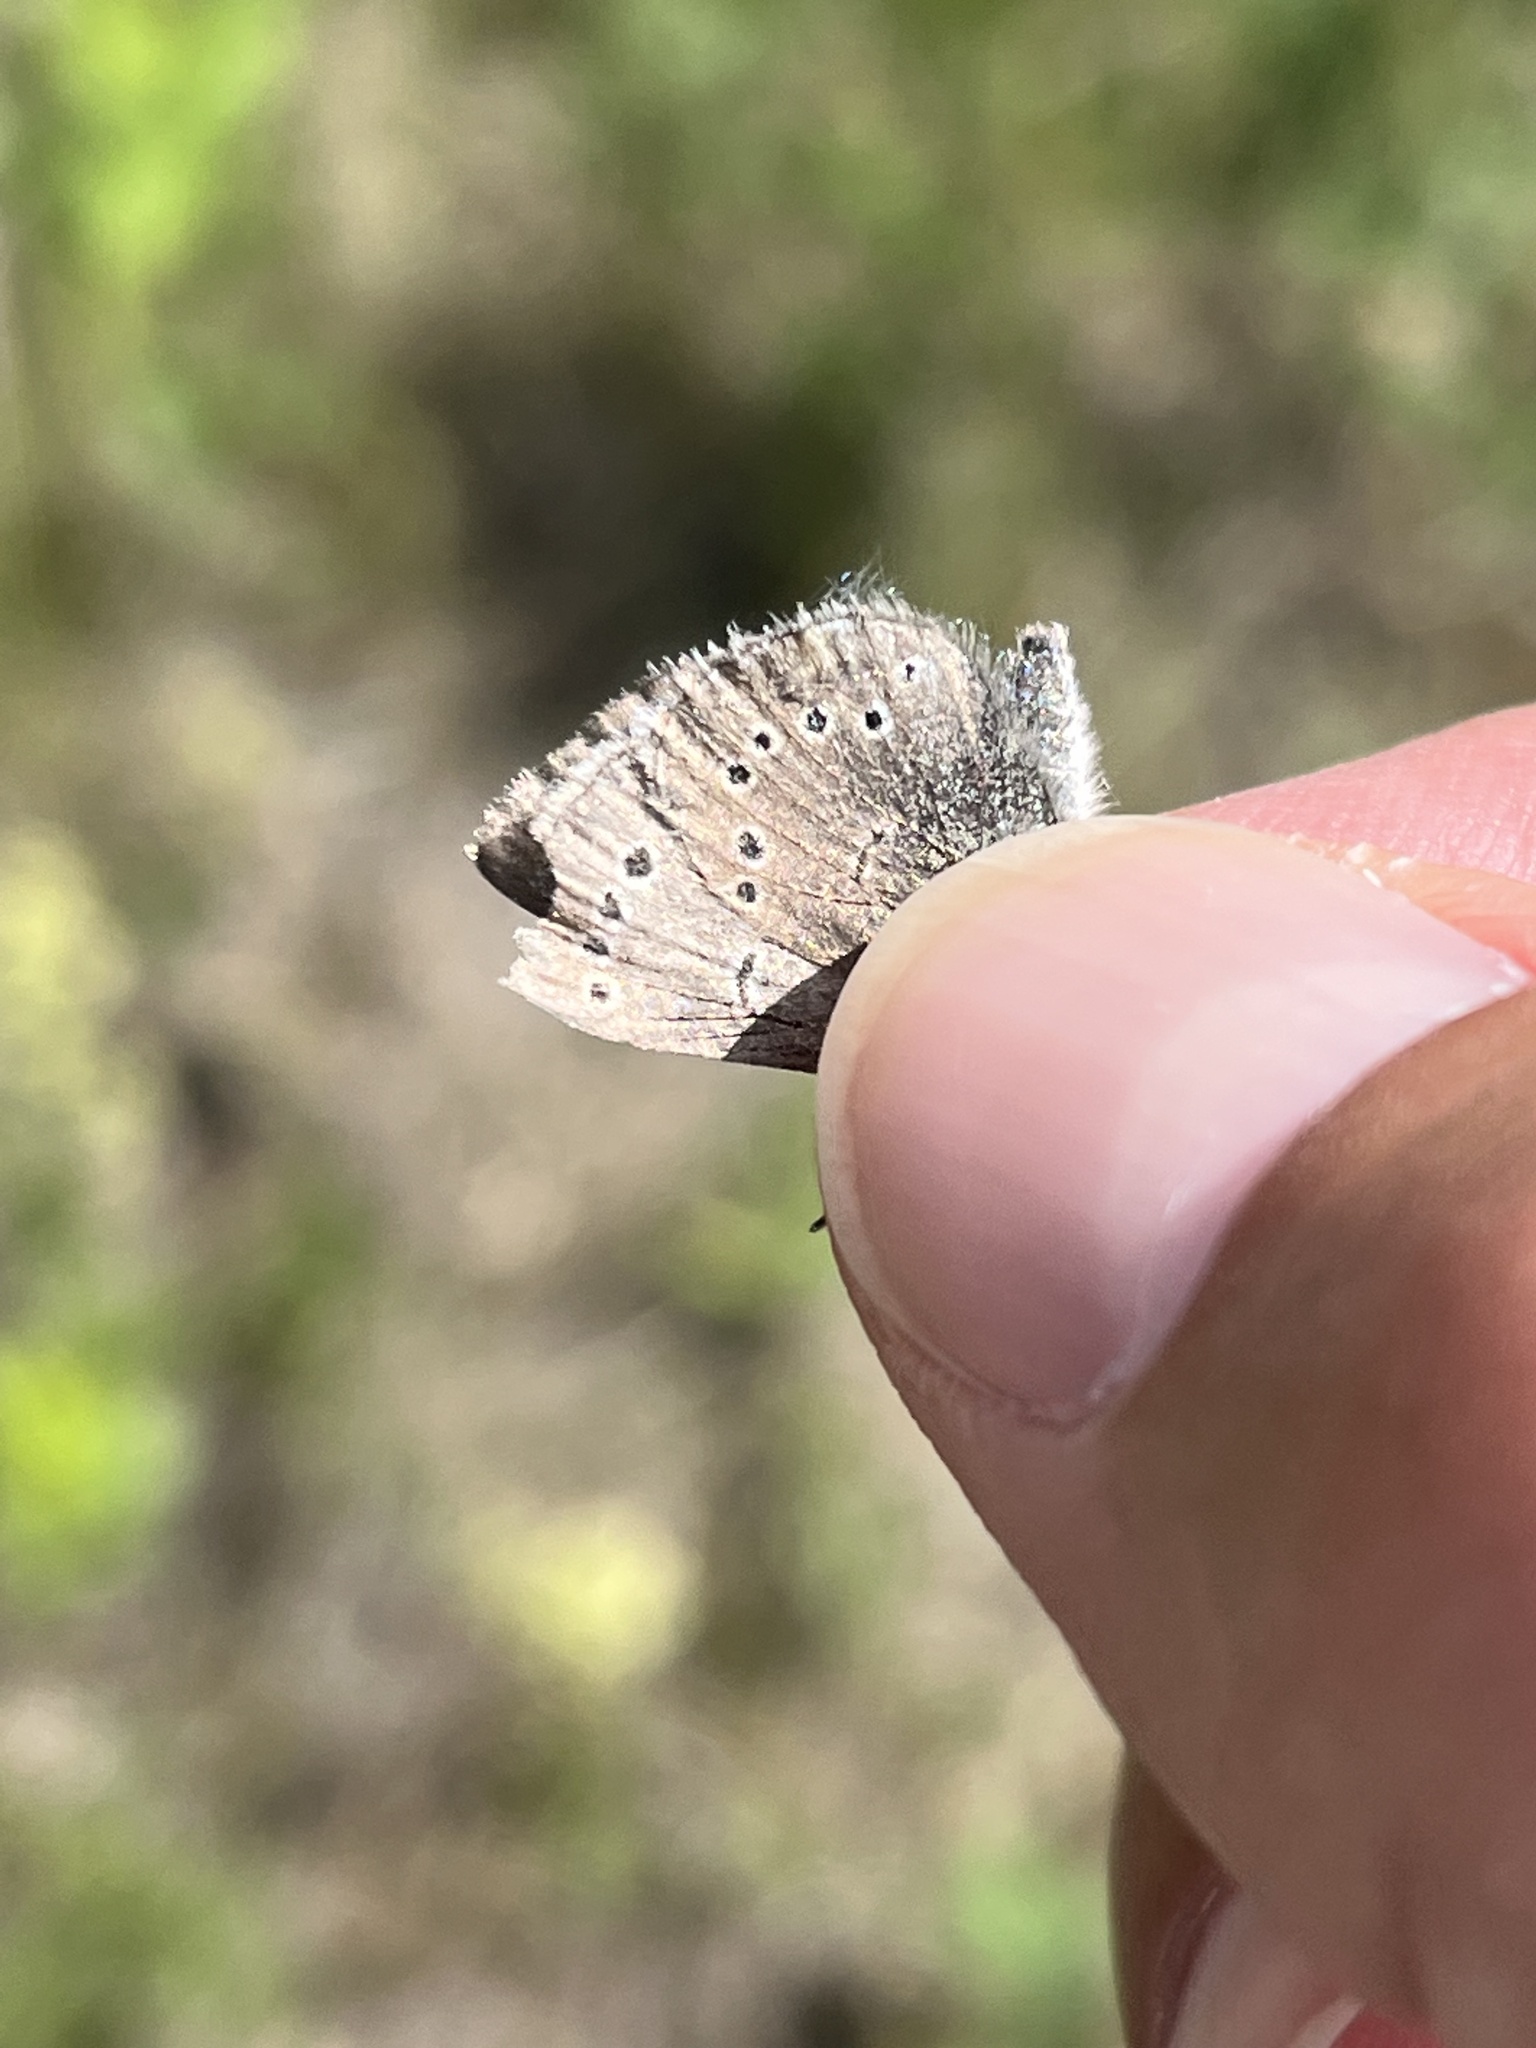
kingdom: Animalia
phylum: Arthropoda
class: Insecta
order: Lepidoptera
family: Lycaenidae
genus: Glaucopsyche
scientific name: Glaucopsyche lygdamus
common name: Silvery blue
